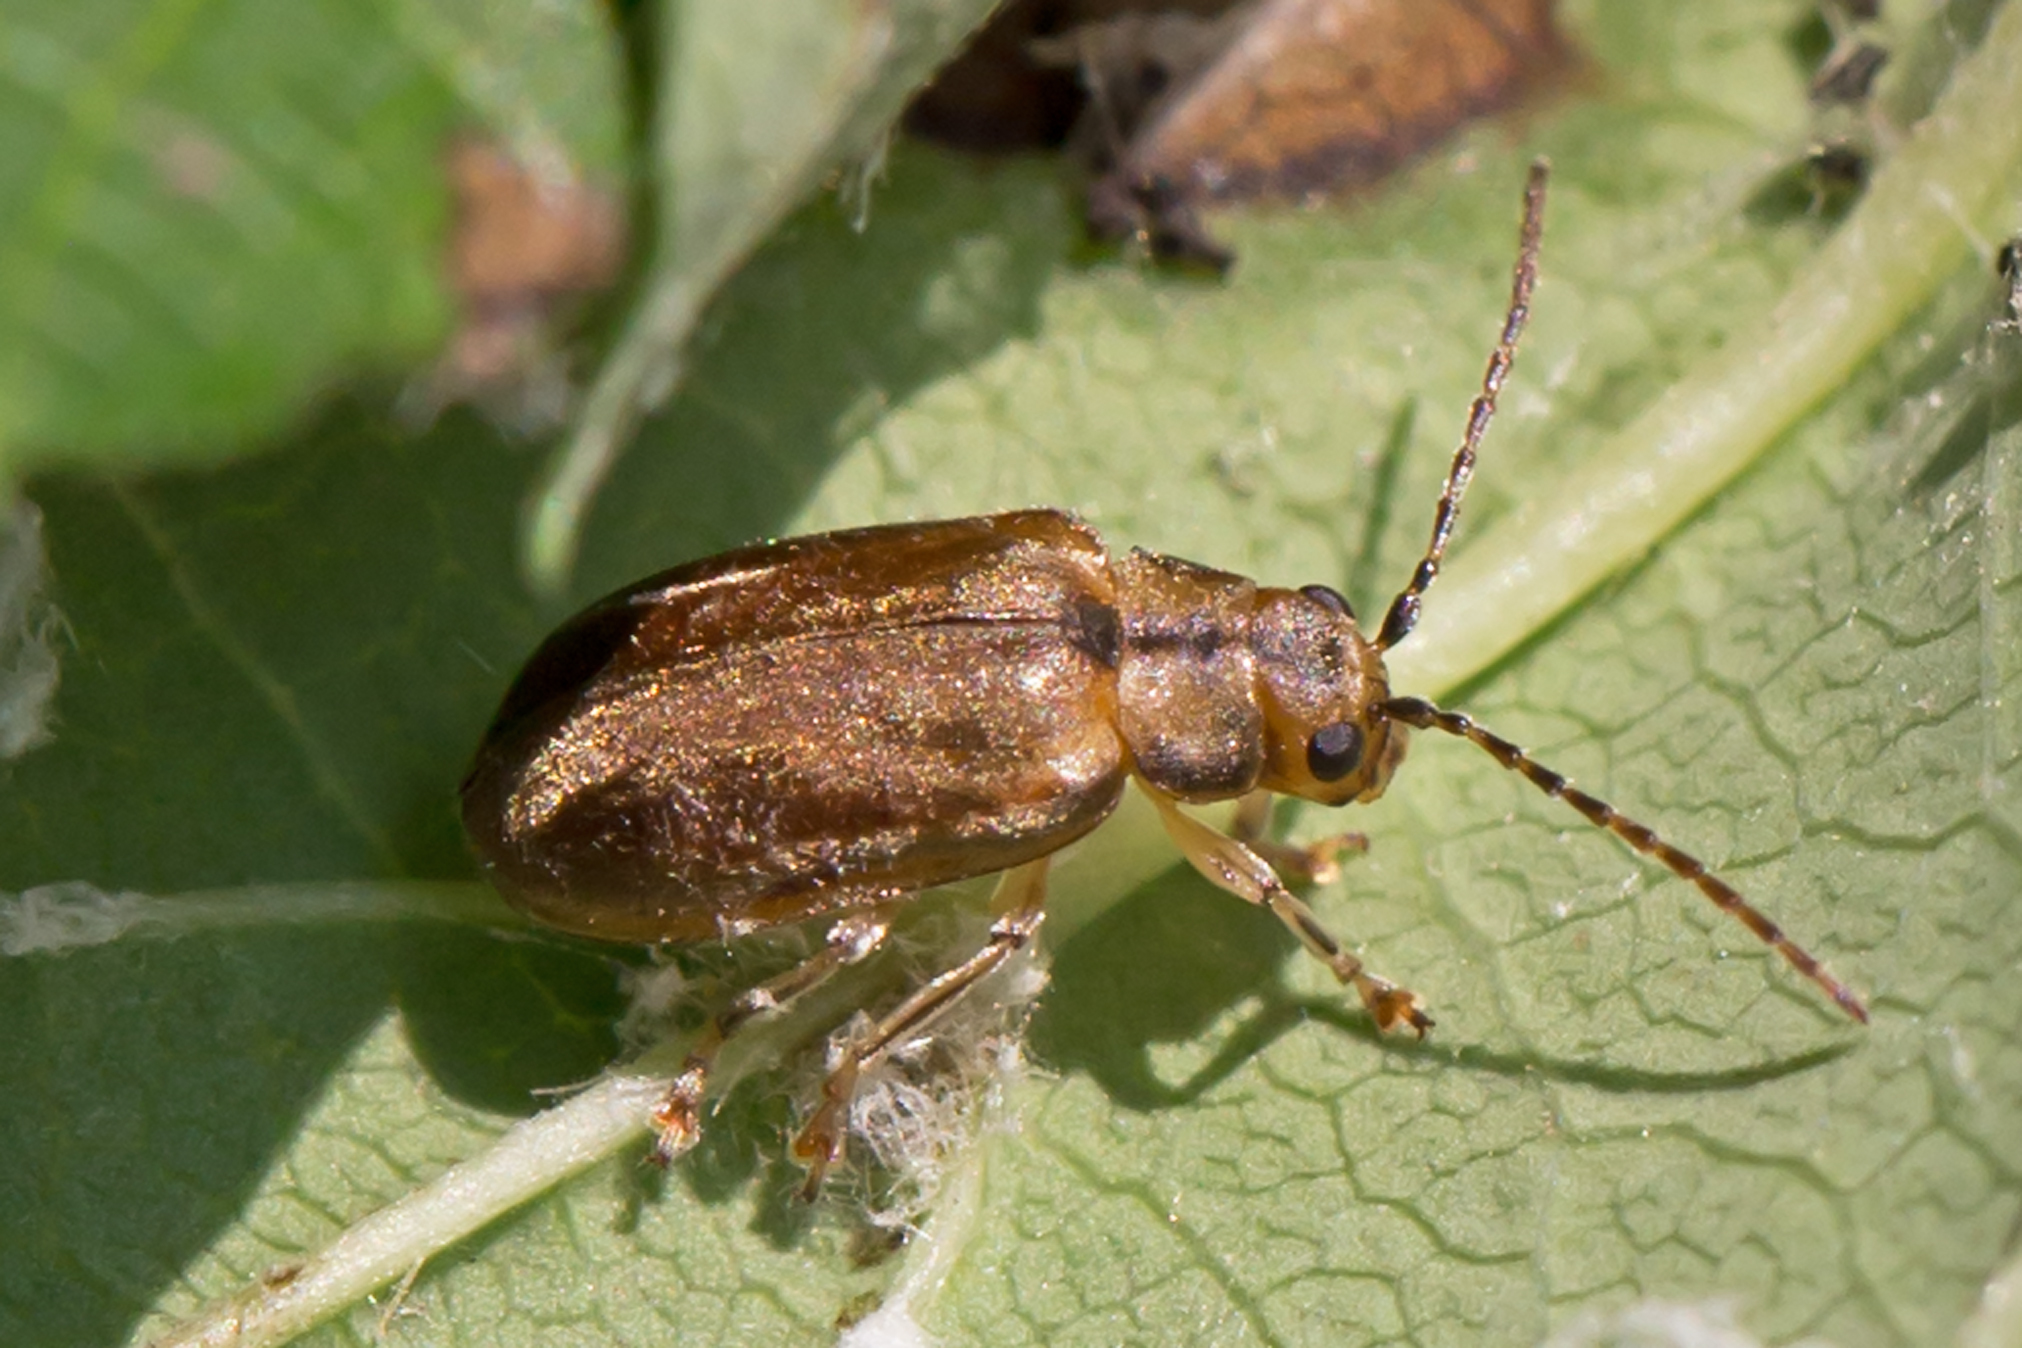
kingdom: Animalia
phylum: Arthropoda
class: Insecta
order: Coleoptera
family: Chrysomelidae
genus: Pyrrhalta
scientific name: Pyrrhalta viburni
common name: Guelder-rose leaf beetle
